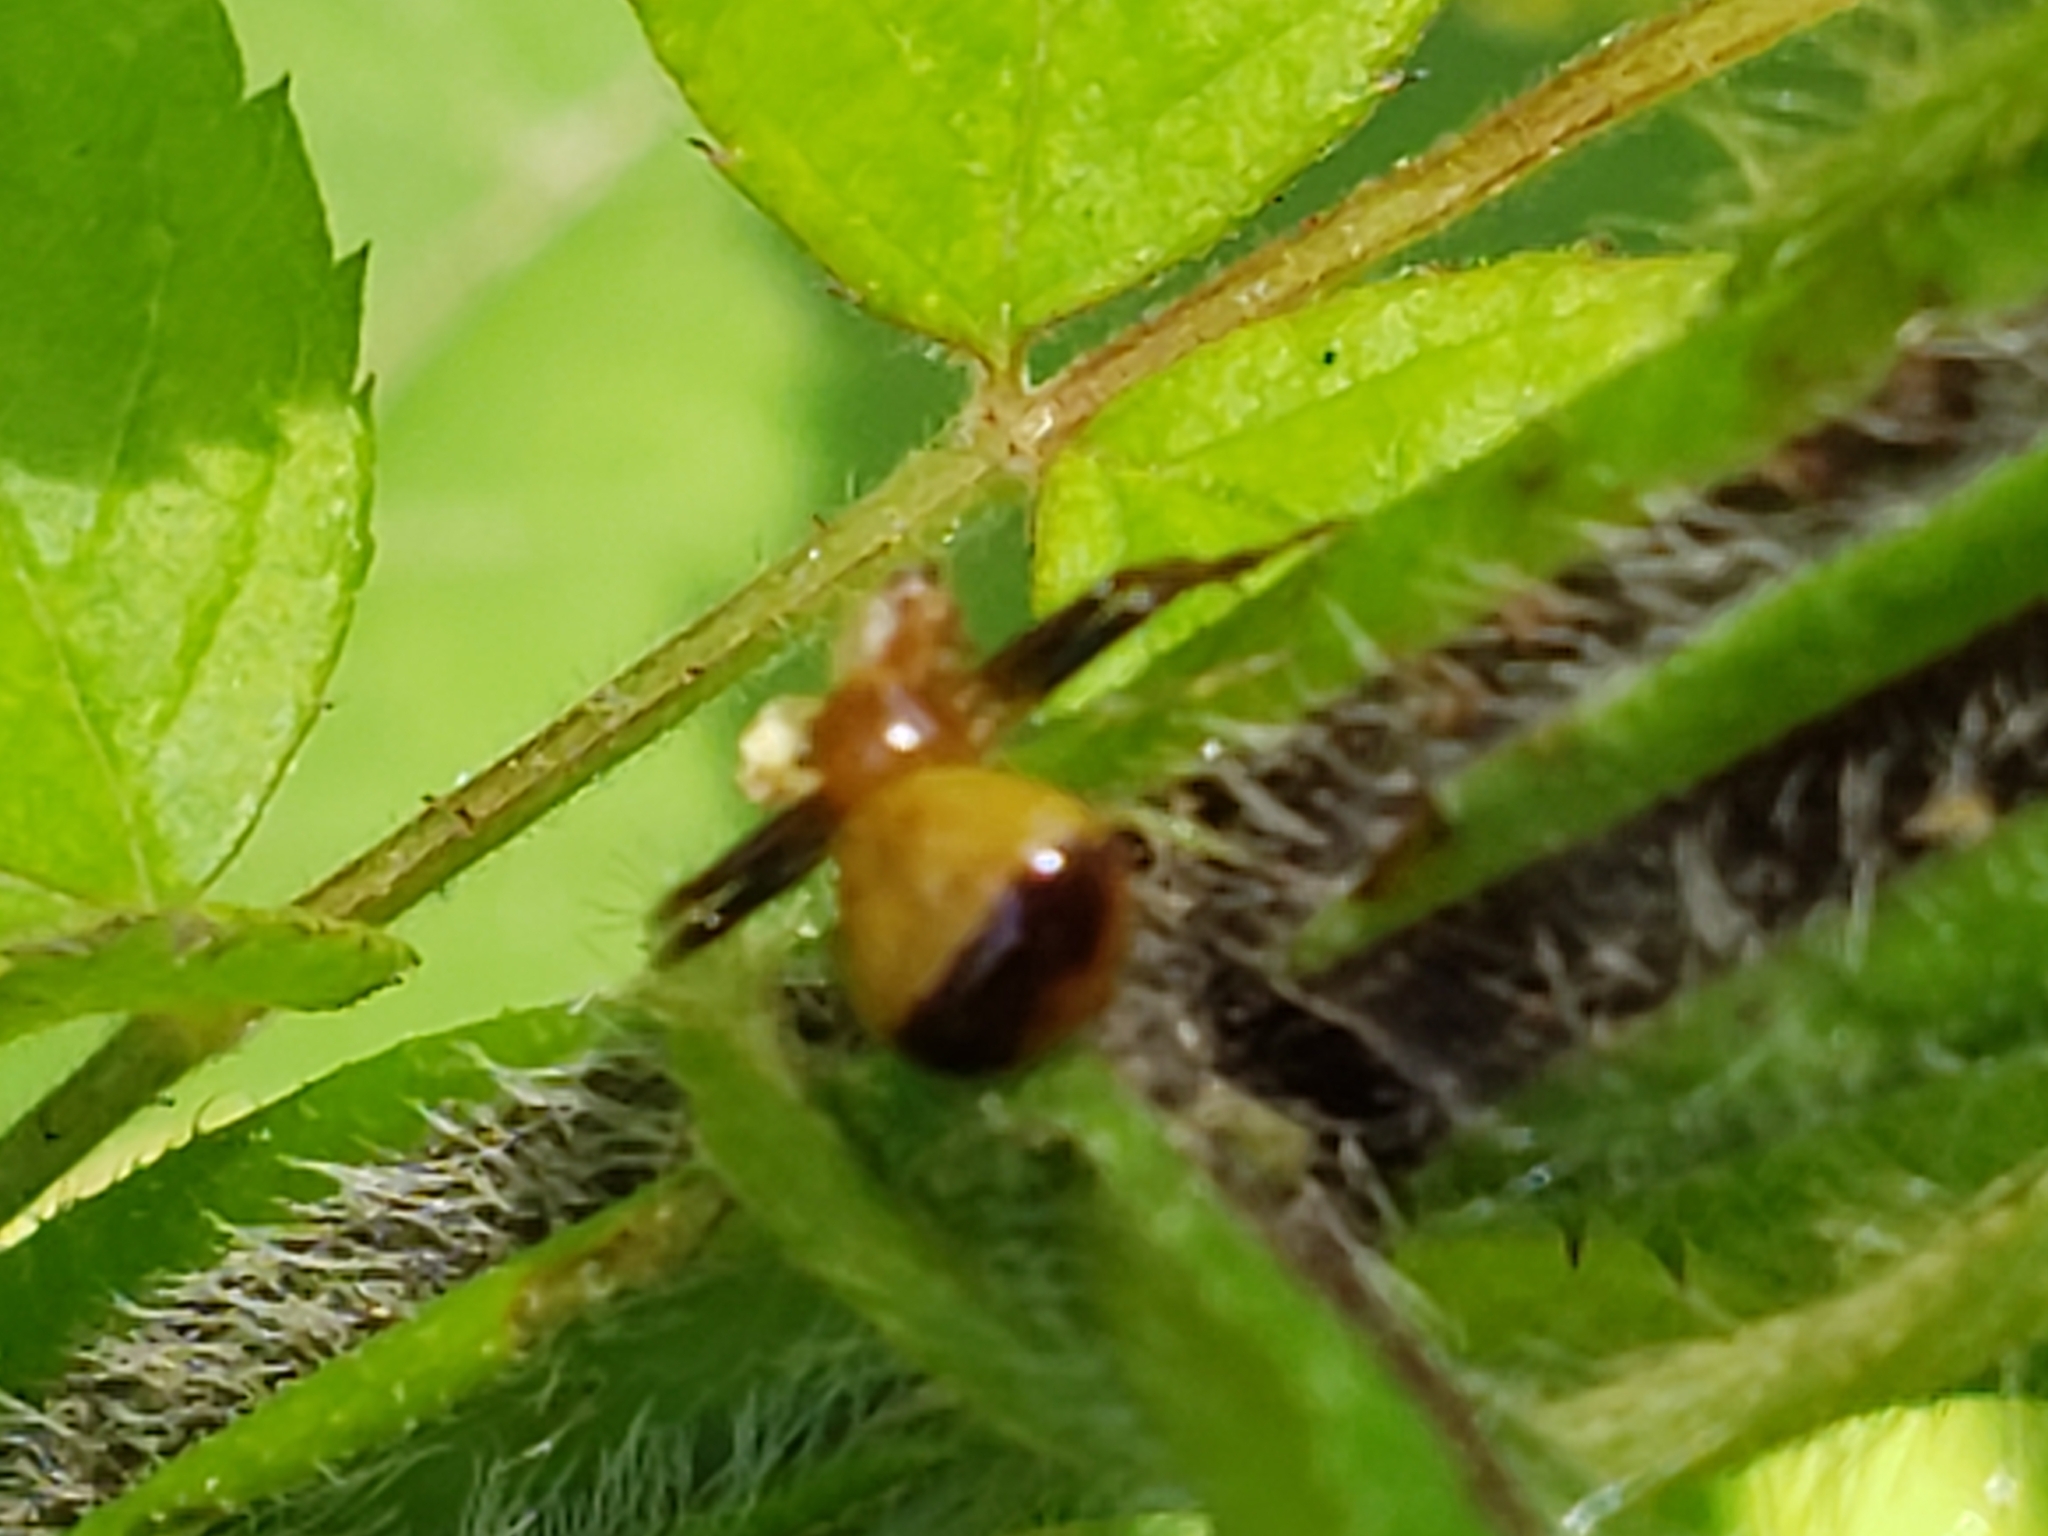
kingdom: Animalia
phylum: Arthropoda
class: Arachnida
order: Araneae
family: Thomisidae
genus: Synema
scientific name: Synema parvulum
